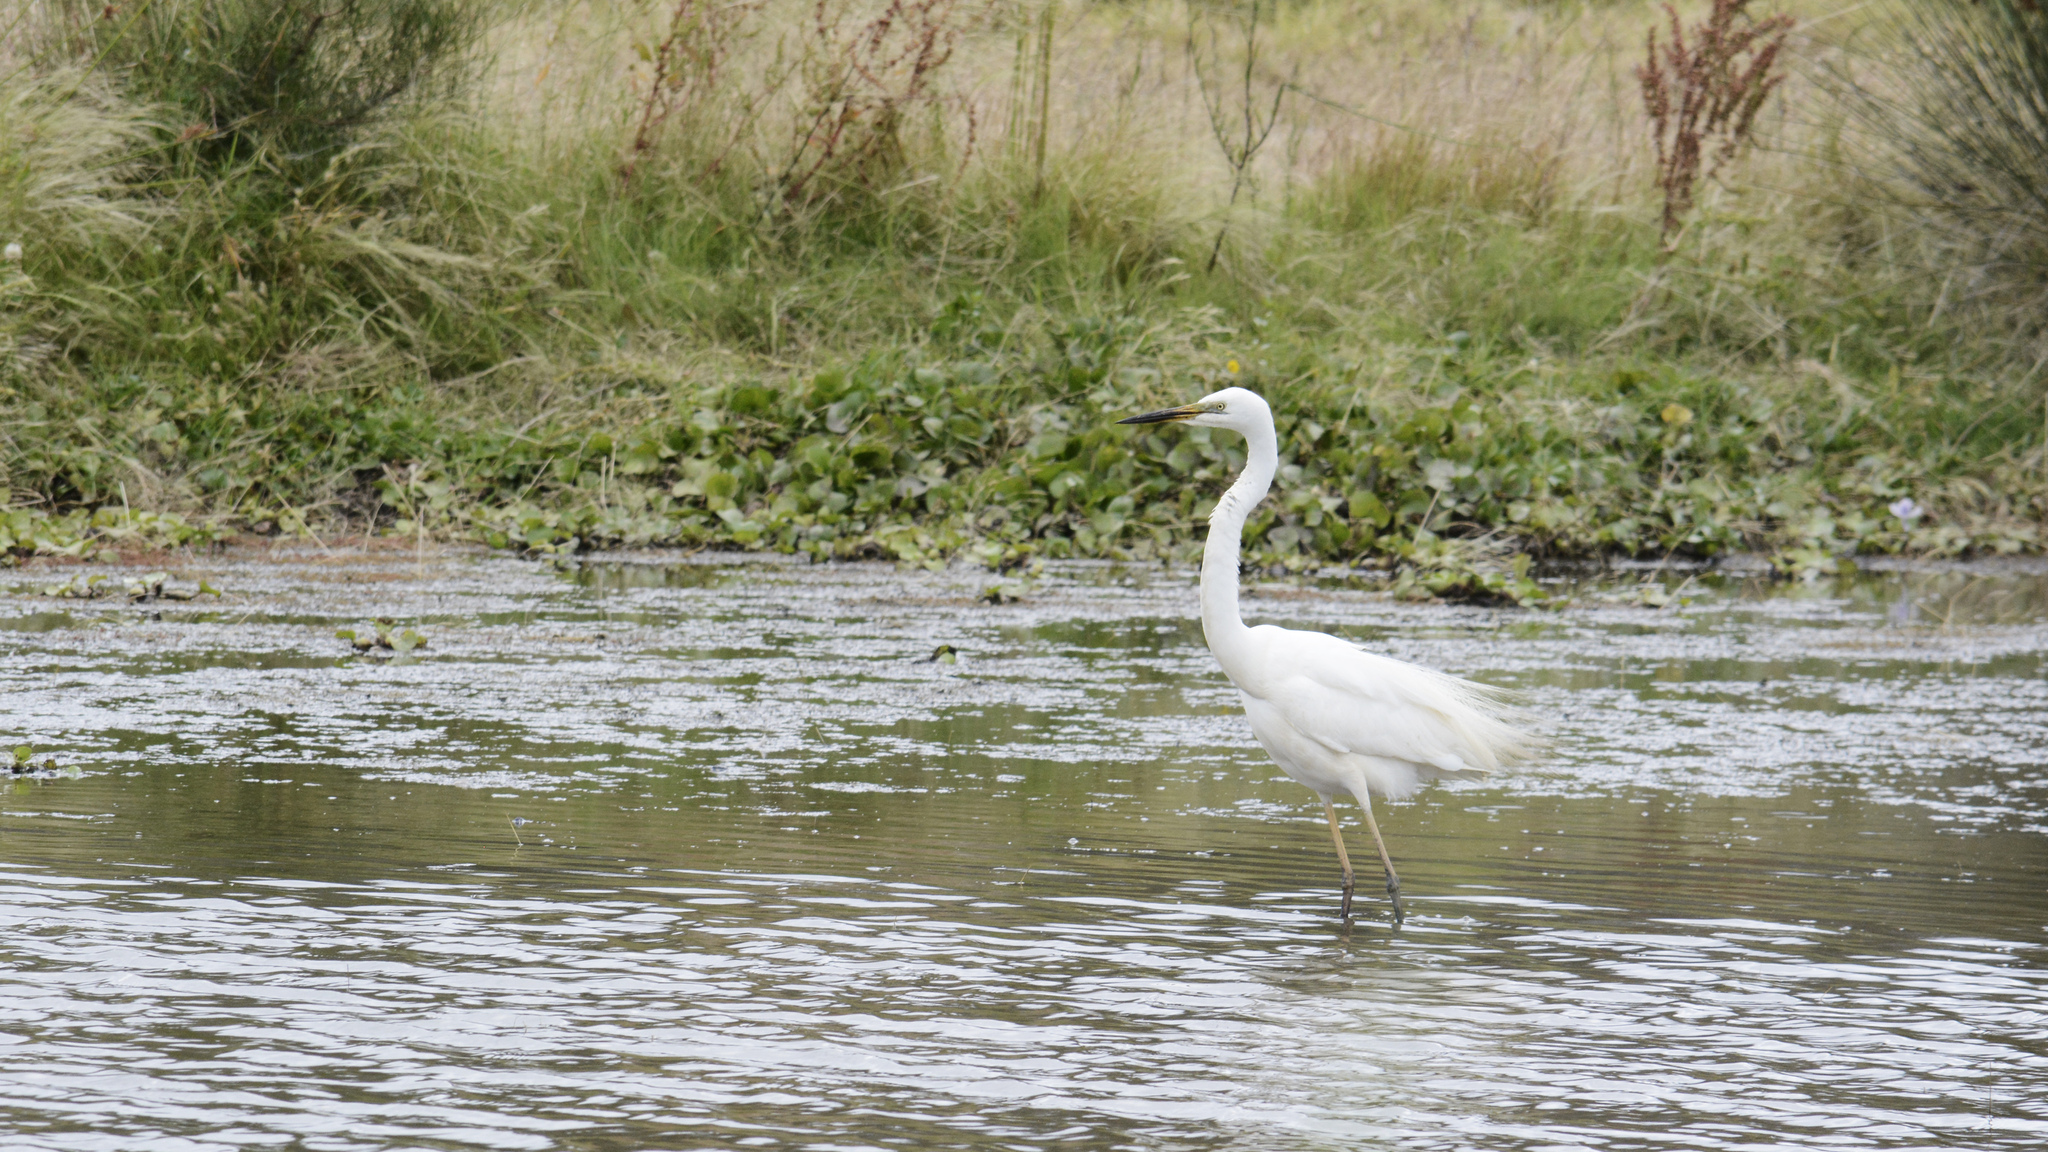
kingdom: Animalia
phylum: Chordata
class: Aves
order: Pelecaniformes
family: Ardeidae
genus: Ardea
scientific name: Ardea alba
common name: Great egret
